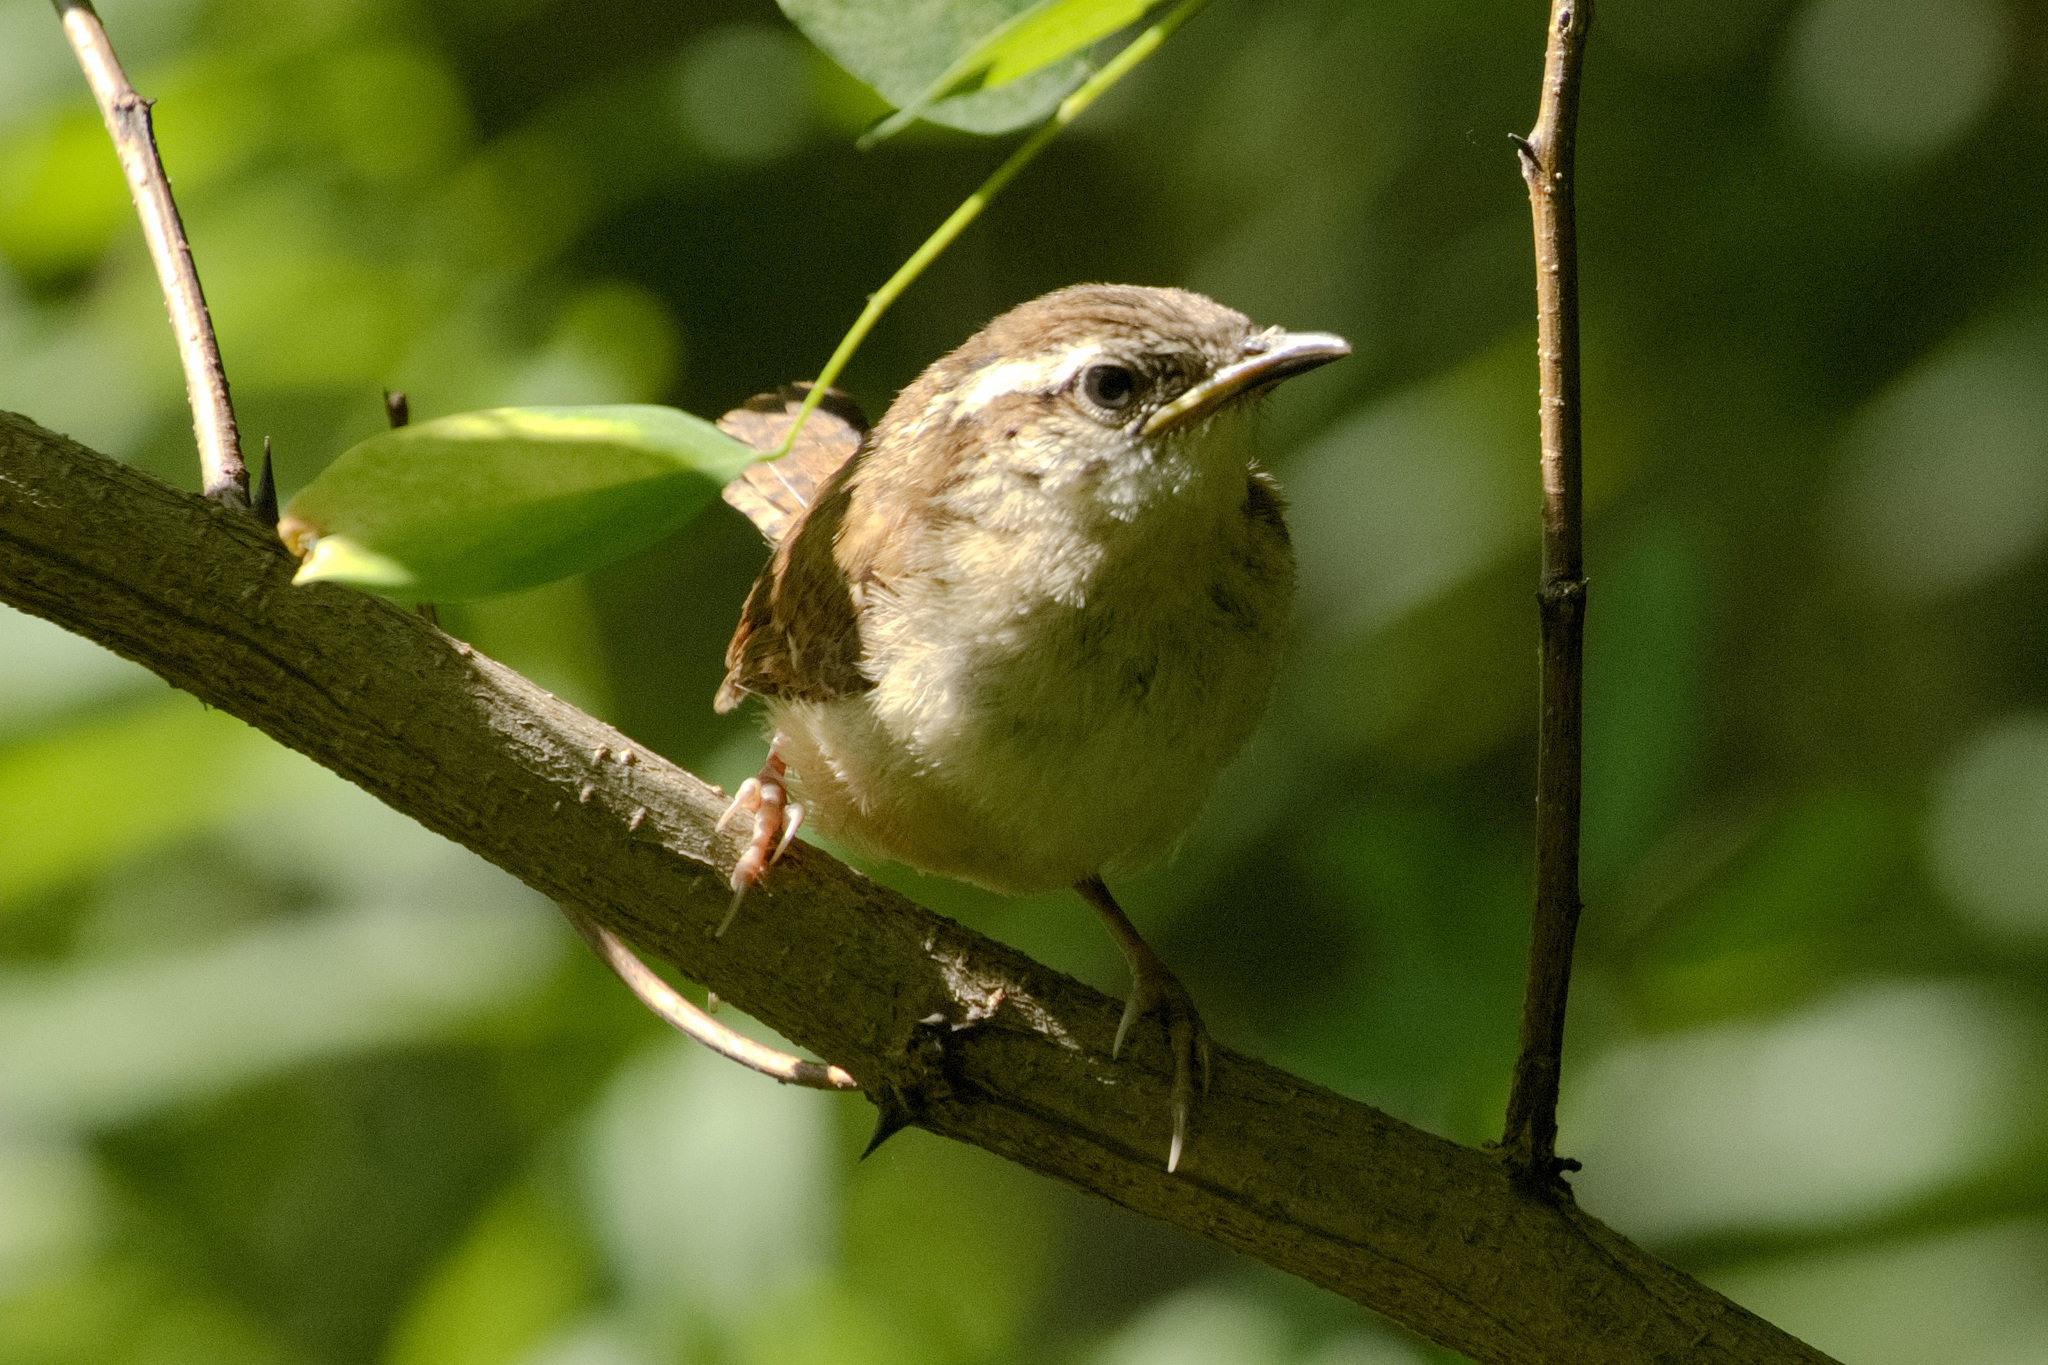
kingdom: Animalia
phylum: Chordata
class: Aves
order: Passeriformes
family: Troglodytidae
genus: Thryothorus
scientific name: Thryothorus ludovicianus
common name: Carolina wren
